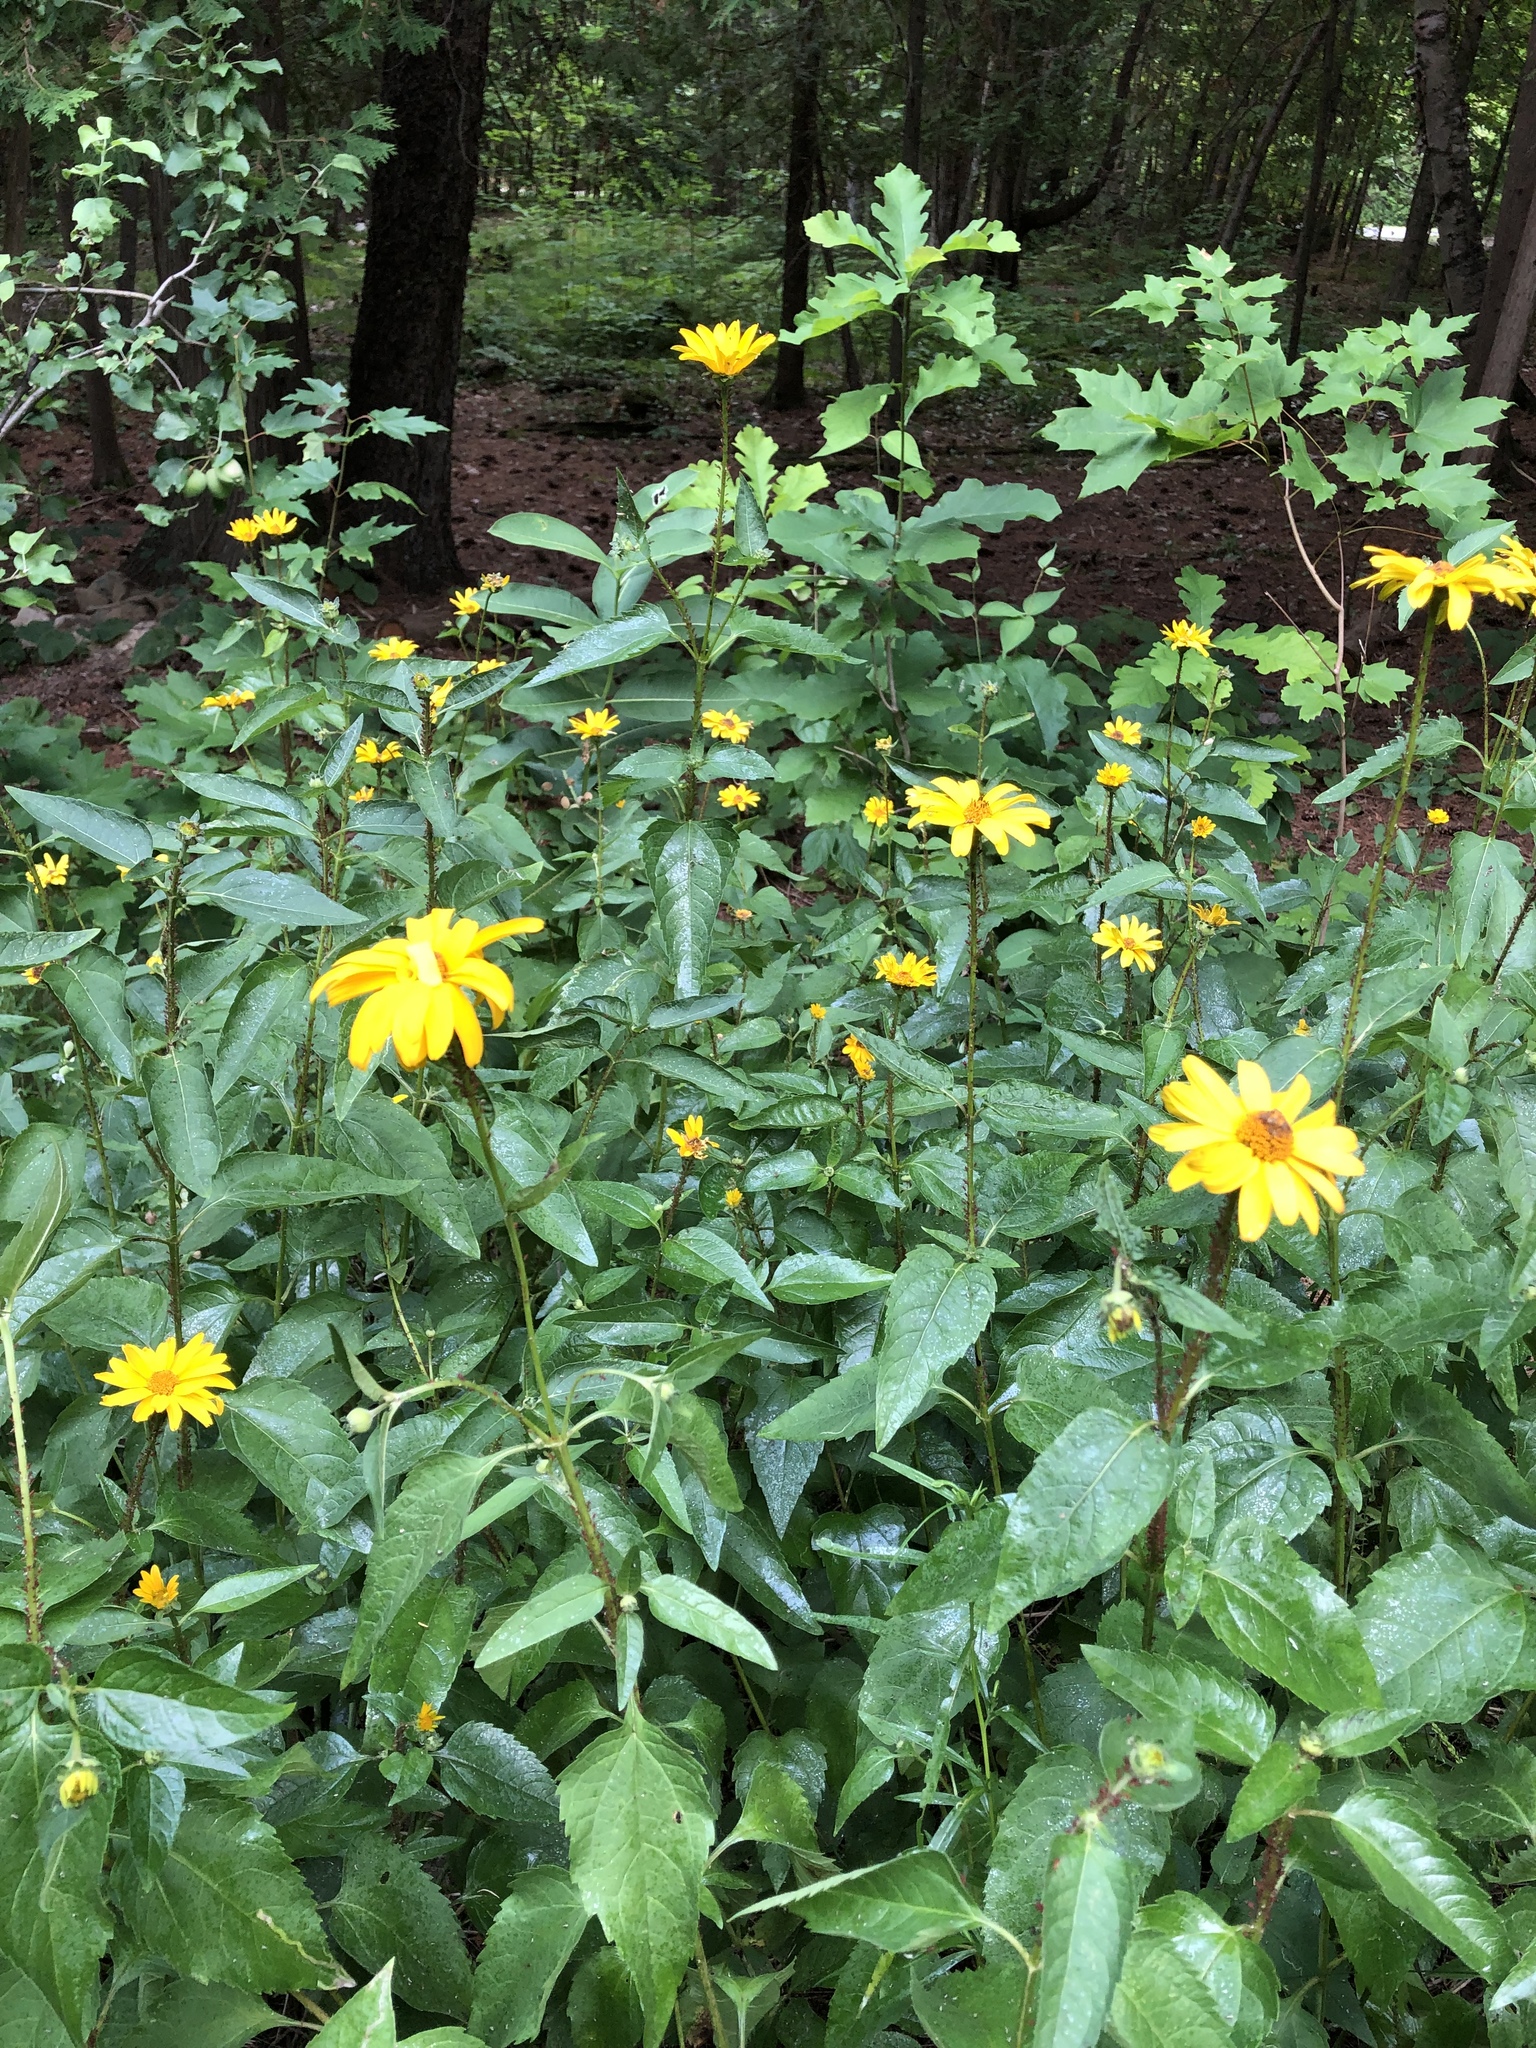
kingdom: Plantae
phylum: Tracheophyta
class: Magnoliopsida
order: Asterales
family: Asteraceae
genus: Heliopsis
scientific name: Heliopsis helianthoides
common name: False sunflower
